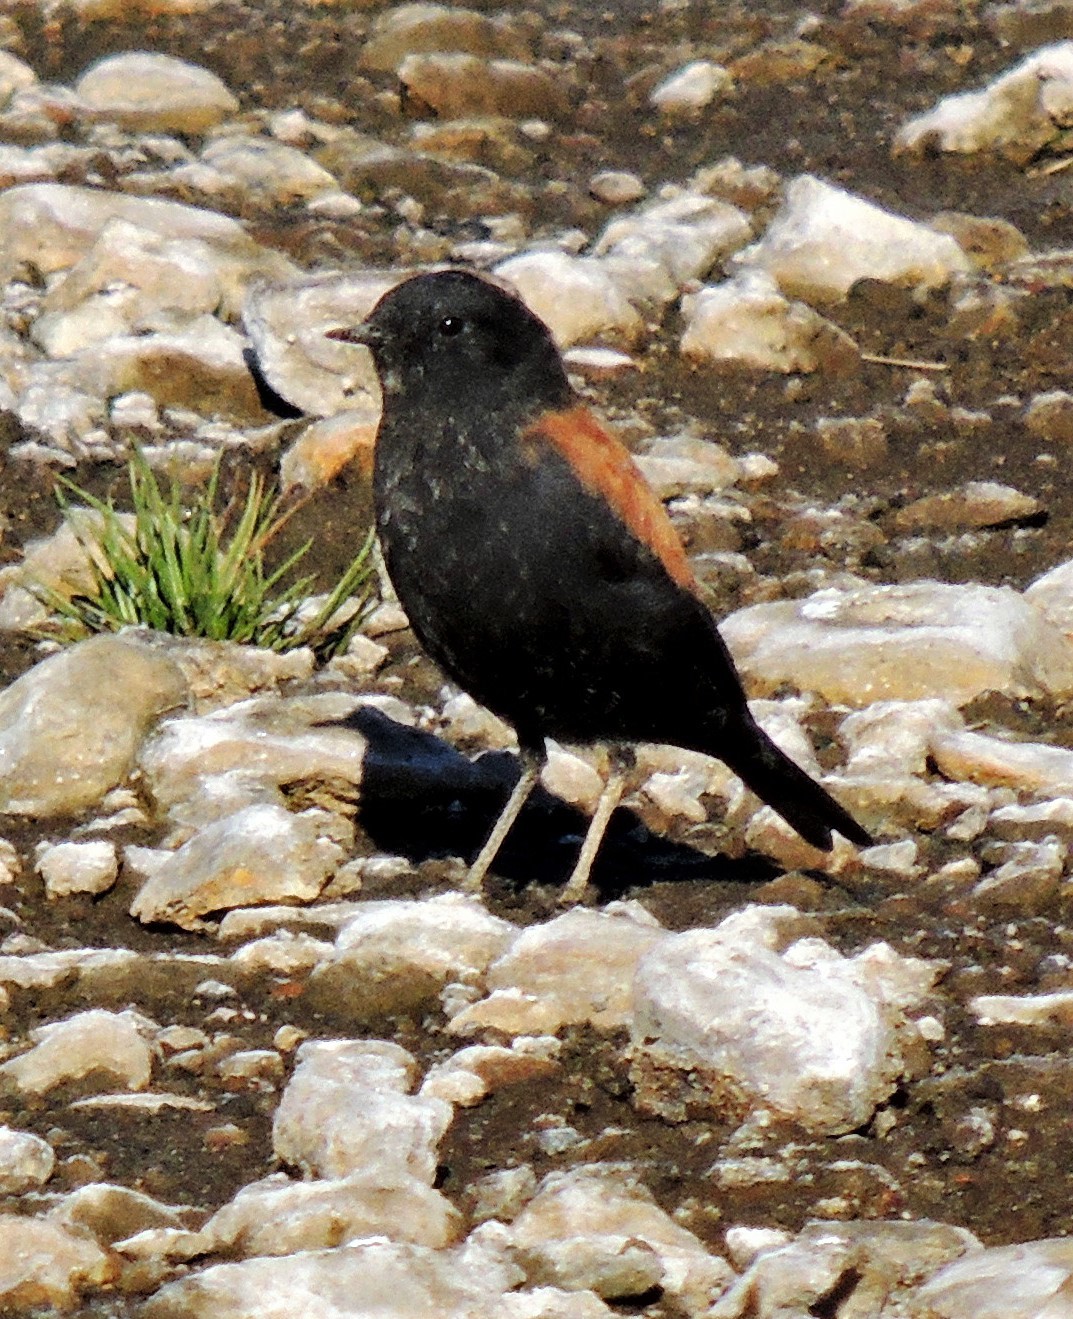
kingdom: Animalia
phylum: Chordata
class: Aves
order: Passeriformes
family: Tyrannidae
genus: Lessonia
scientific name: Lessonia rufa
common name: Austral negrito
